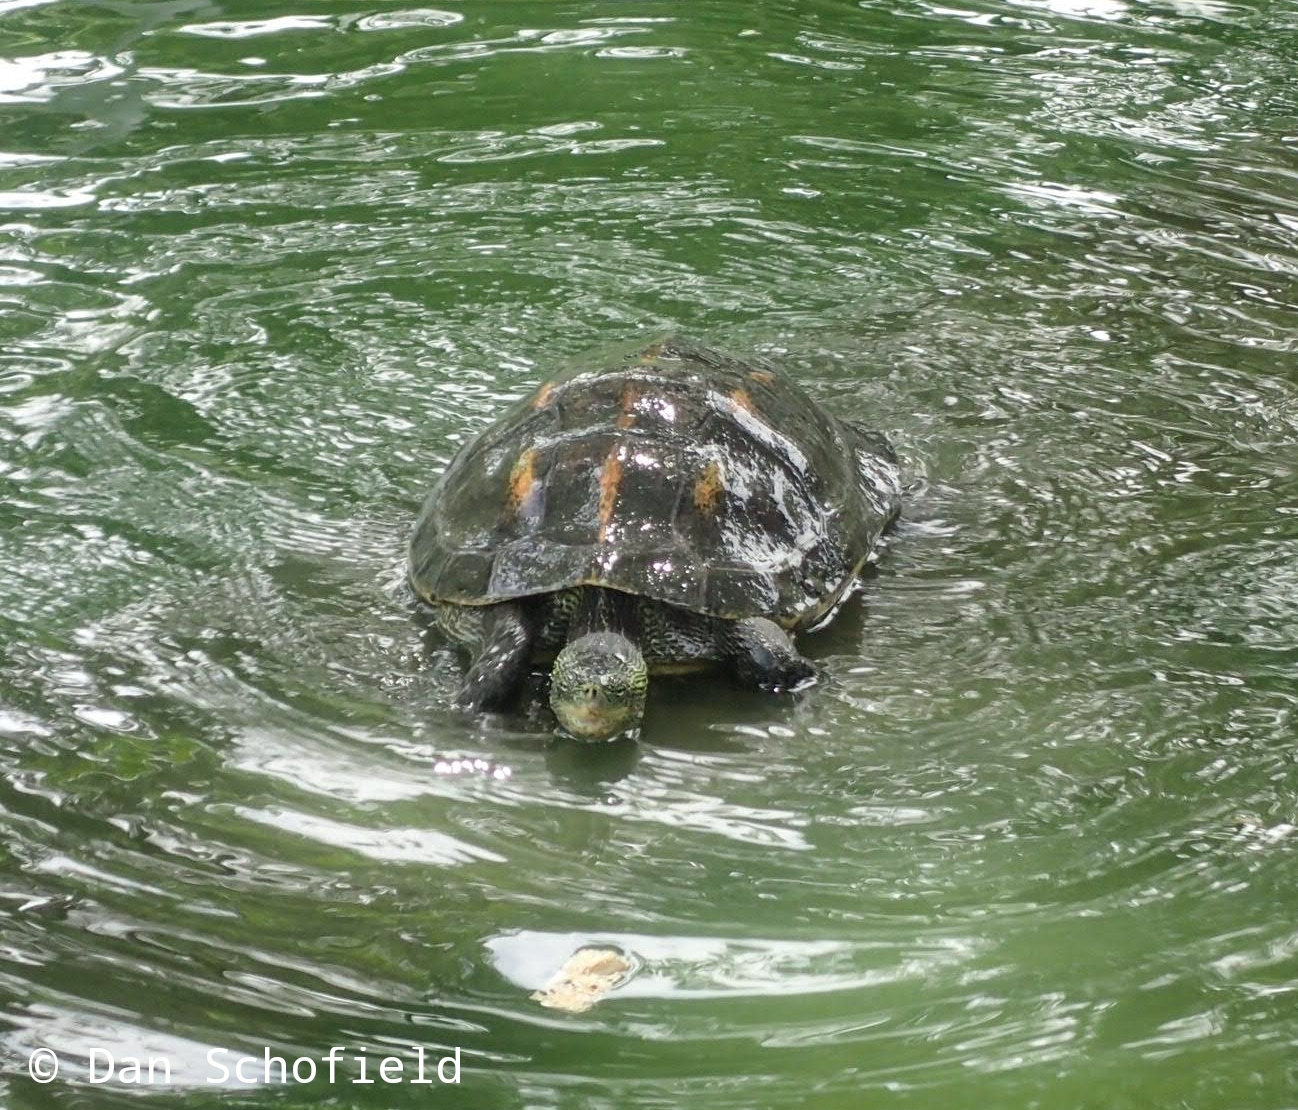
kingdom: Animalia
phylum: Chordata
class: Testudines
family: Geoemydidae
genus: Mauremys
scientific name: Mauremys sinensis
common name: Chinese stripe-necked turtle
